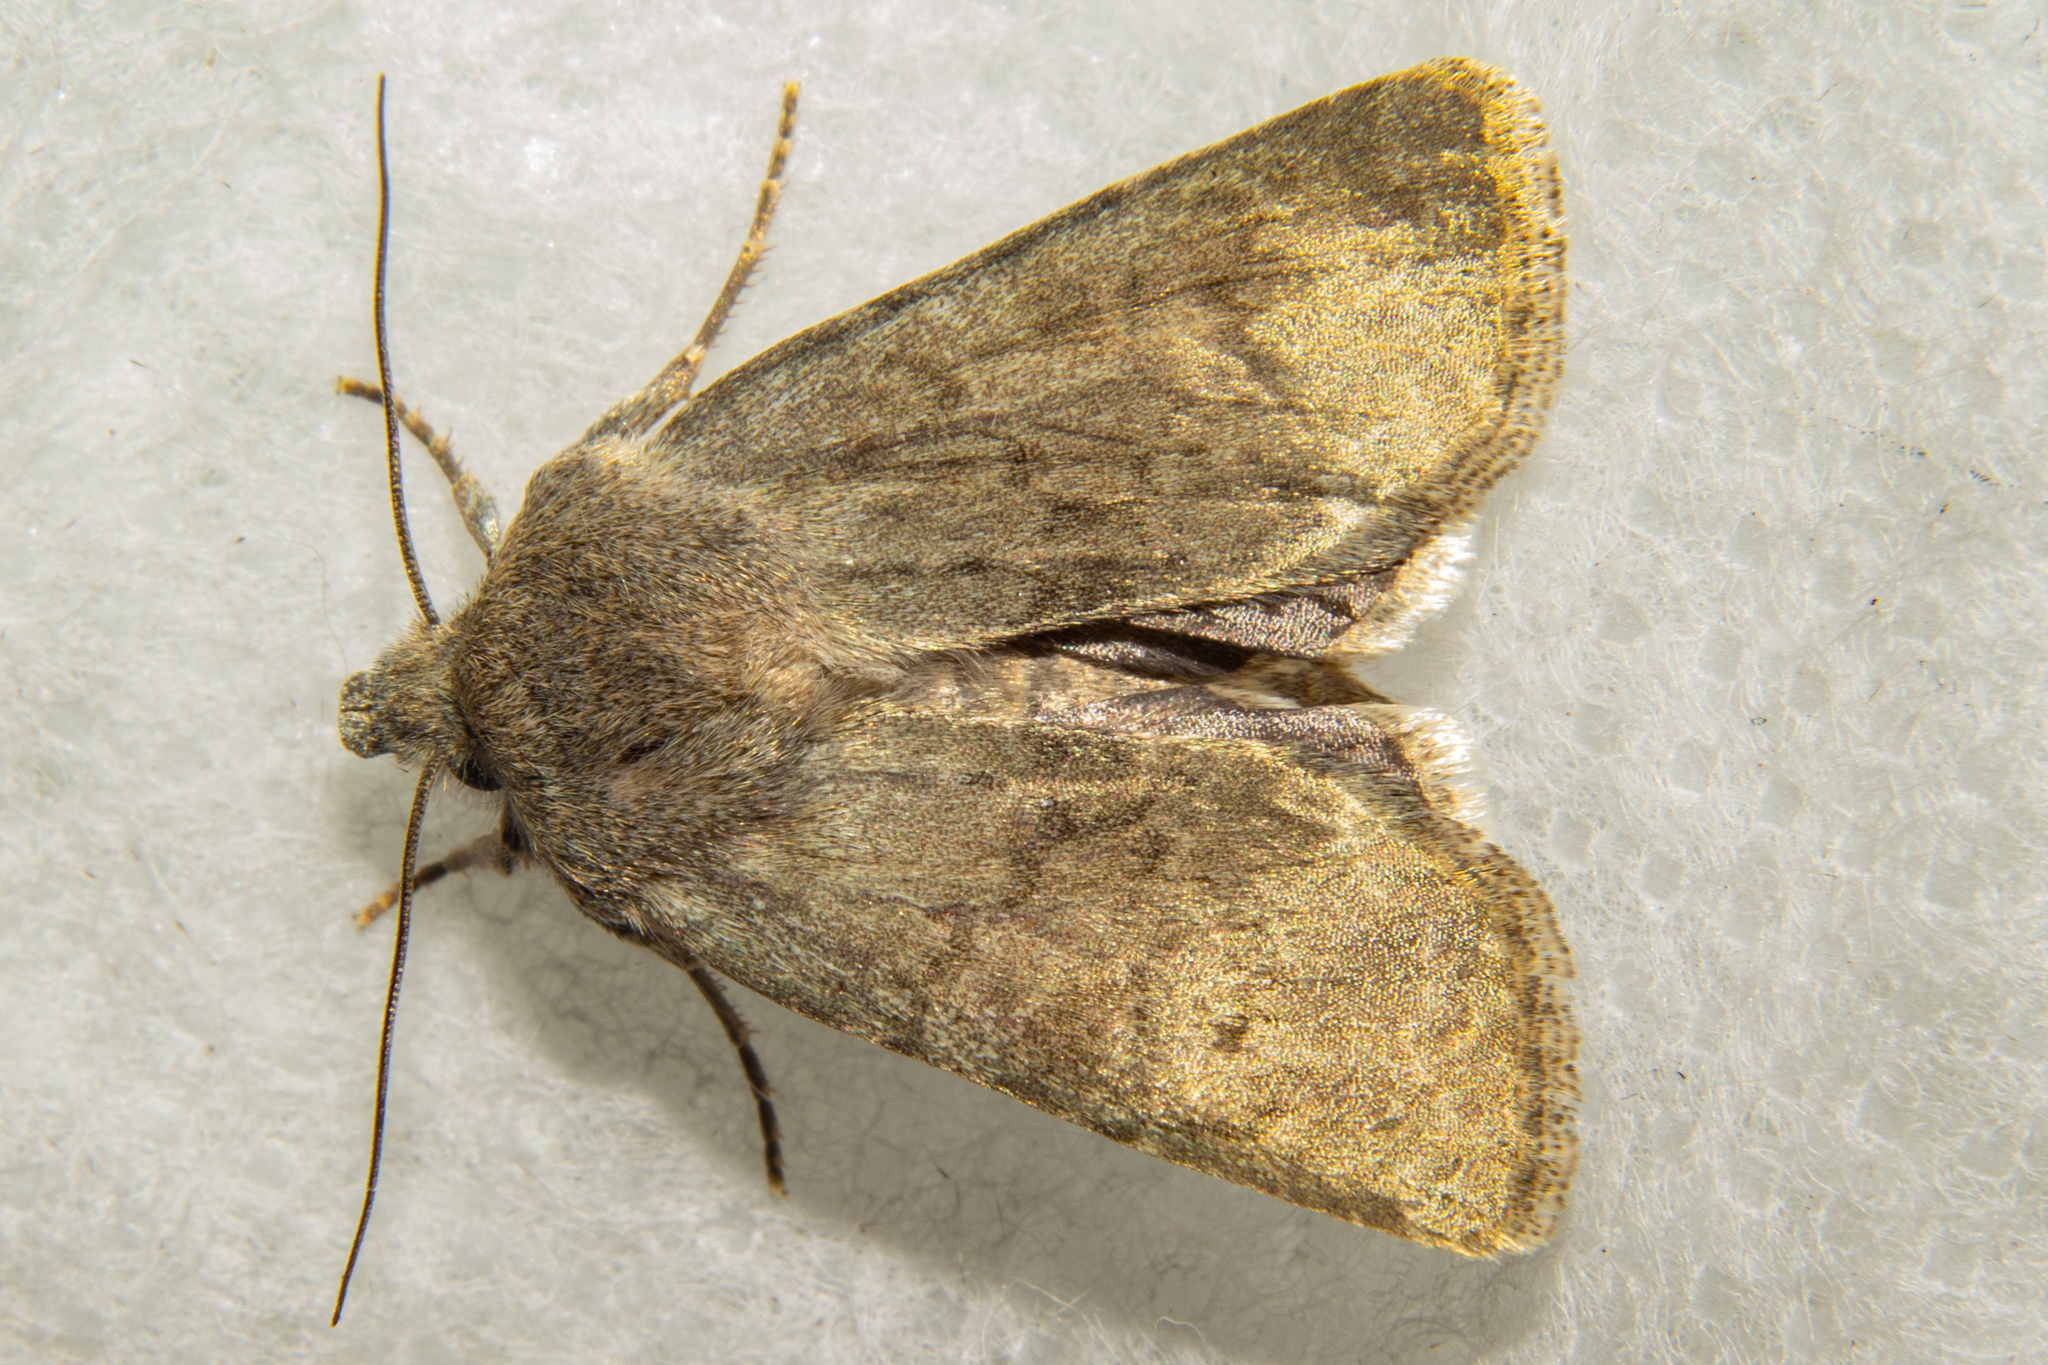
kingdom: Animalia
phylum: Arthropoda
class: Insecta
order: Lepidoptera
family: Noctuidae
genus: Physetica
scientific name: Physetica caerulea
